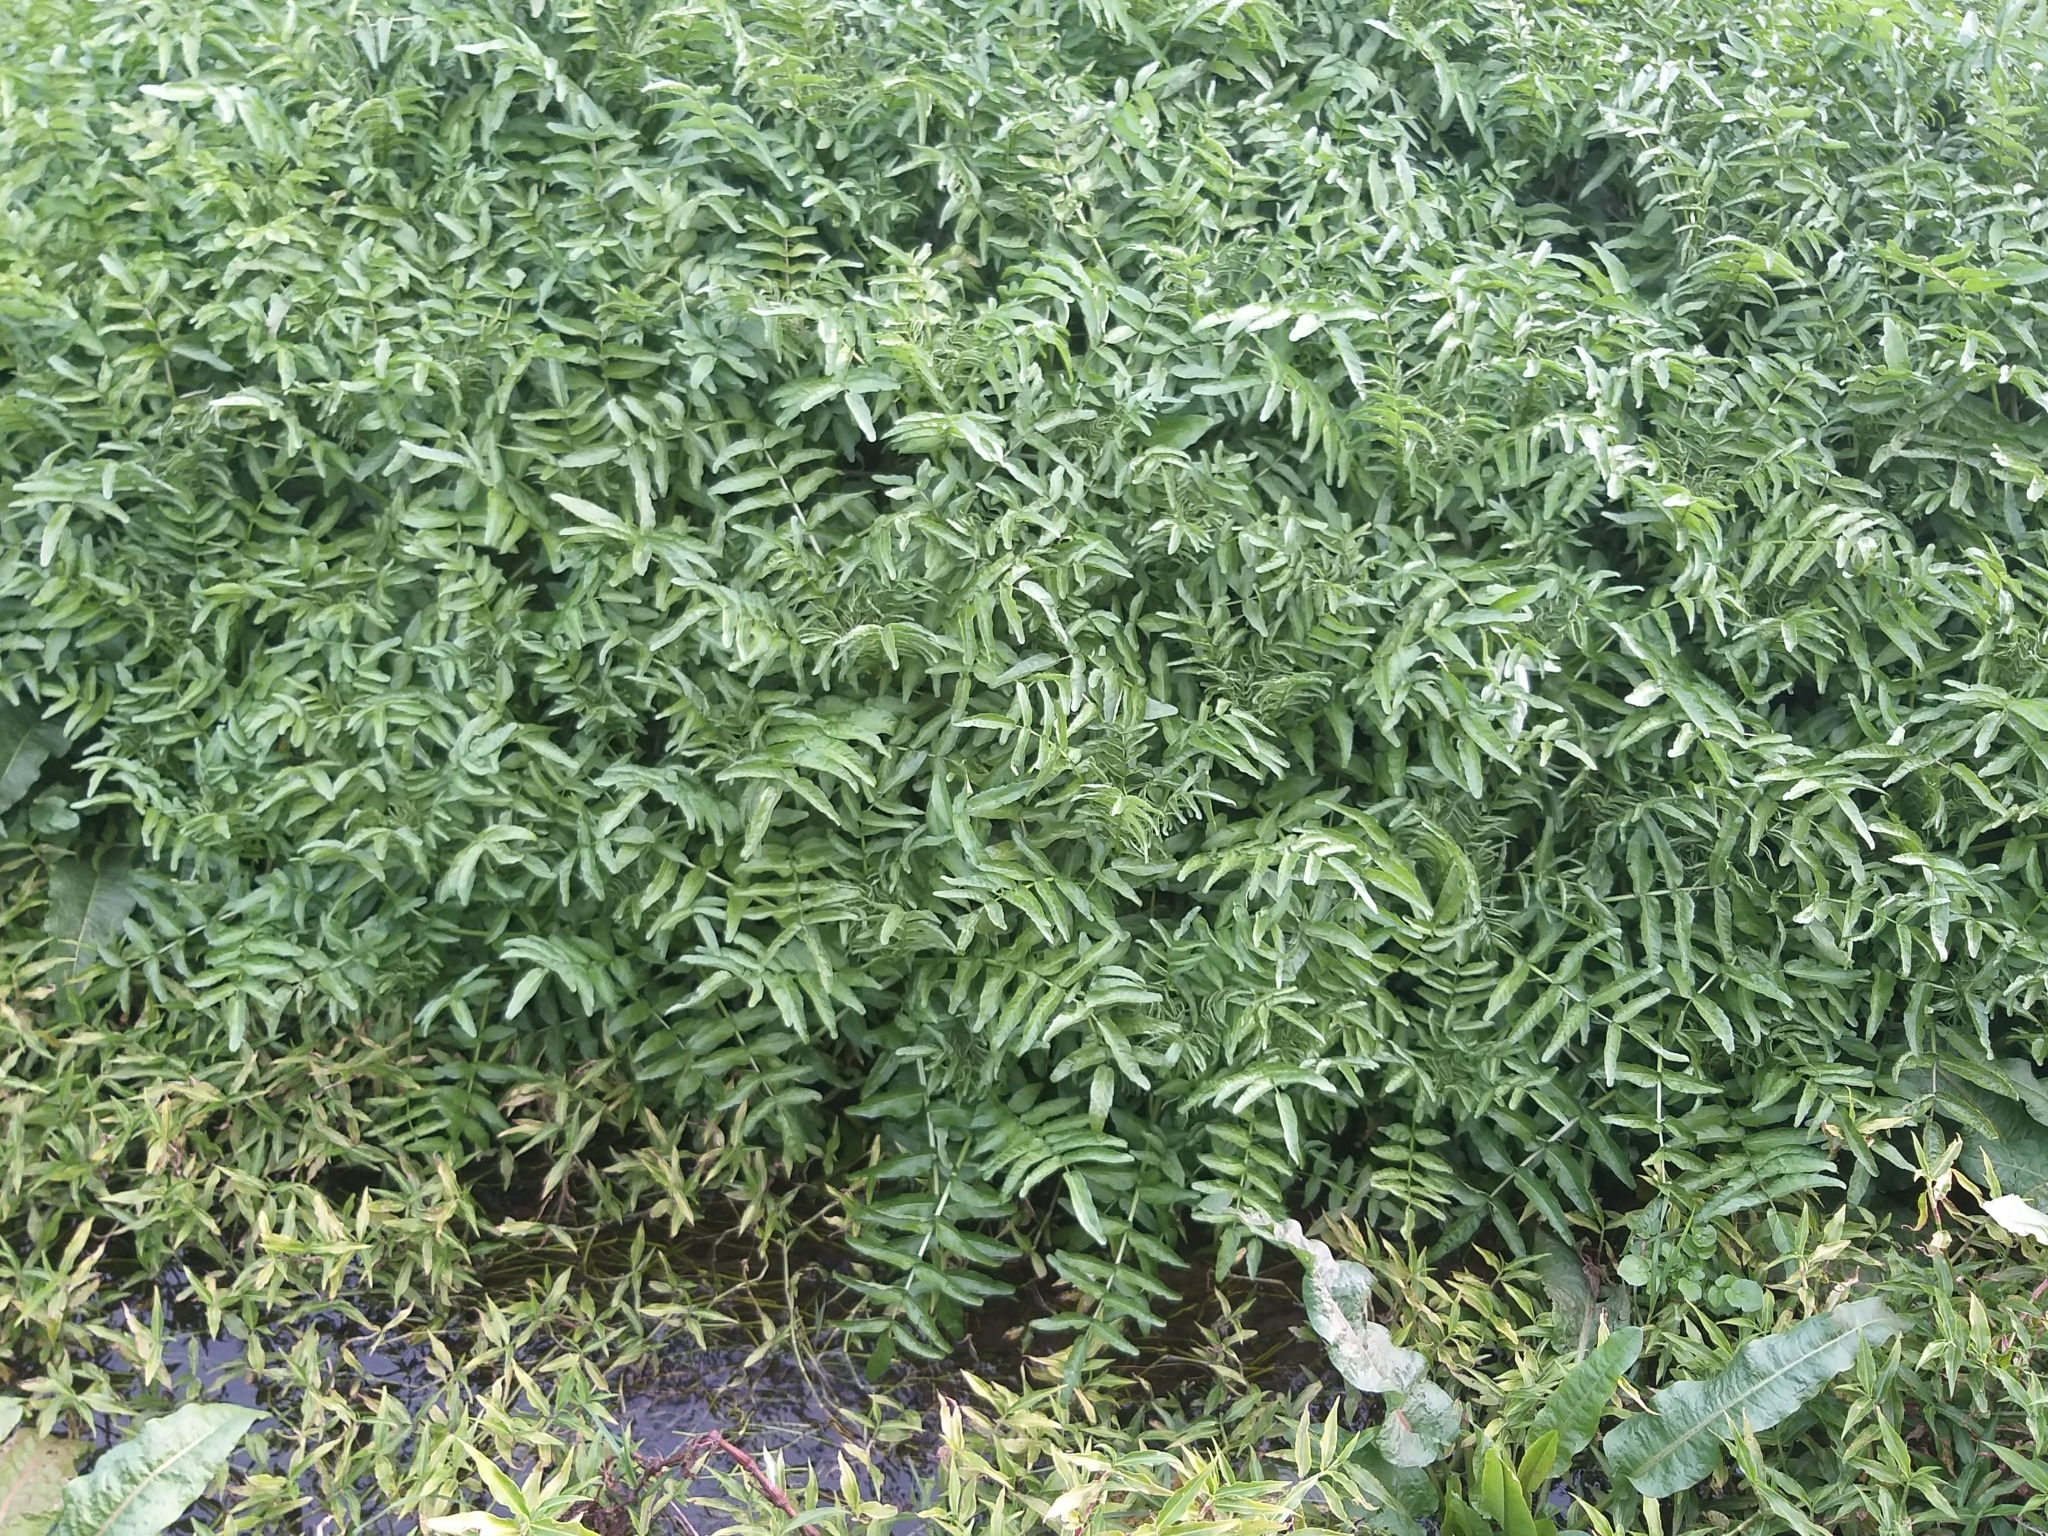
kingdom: Plantae
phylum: Tracheophyta
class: Magnoliopsida
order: Brassicales
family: Brassicaceae
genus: Nasturtium
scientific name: Nasturtium officinale
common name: Watercress
